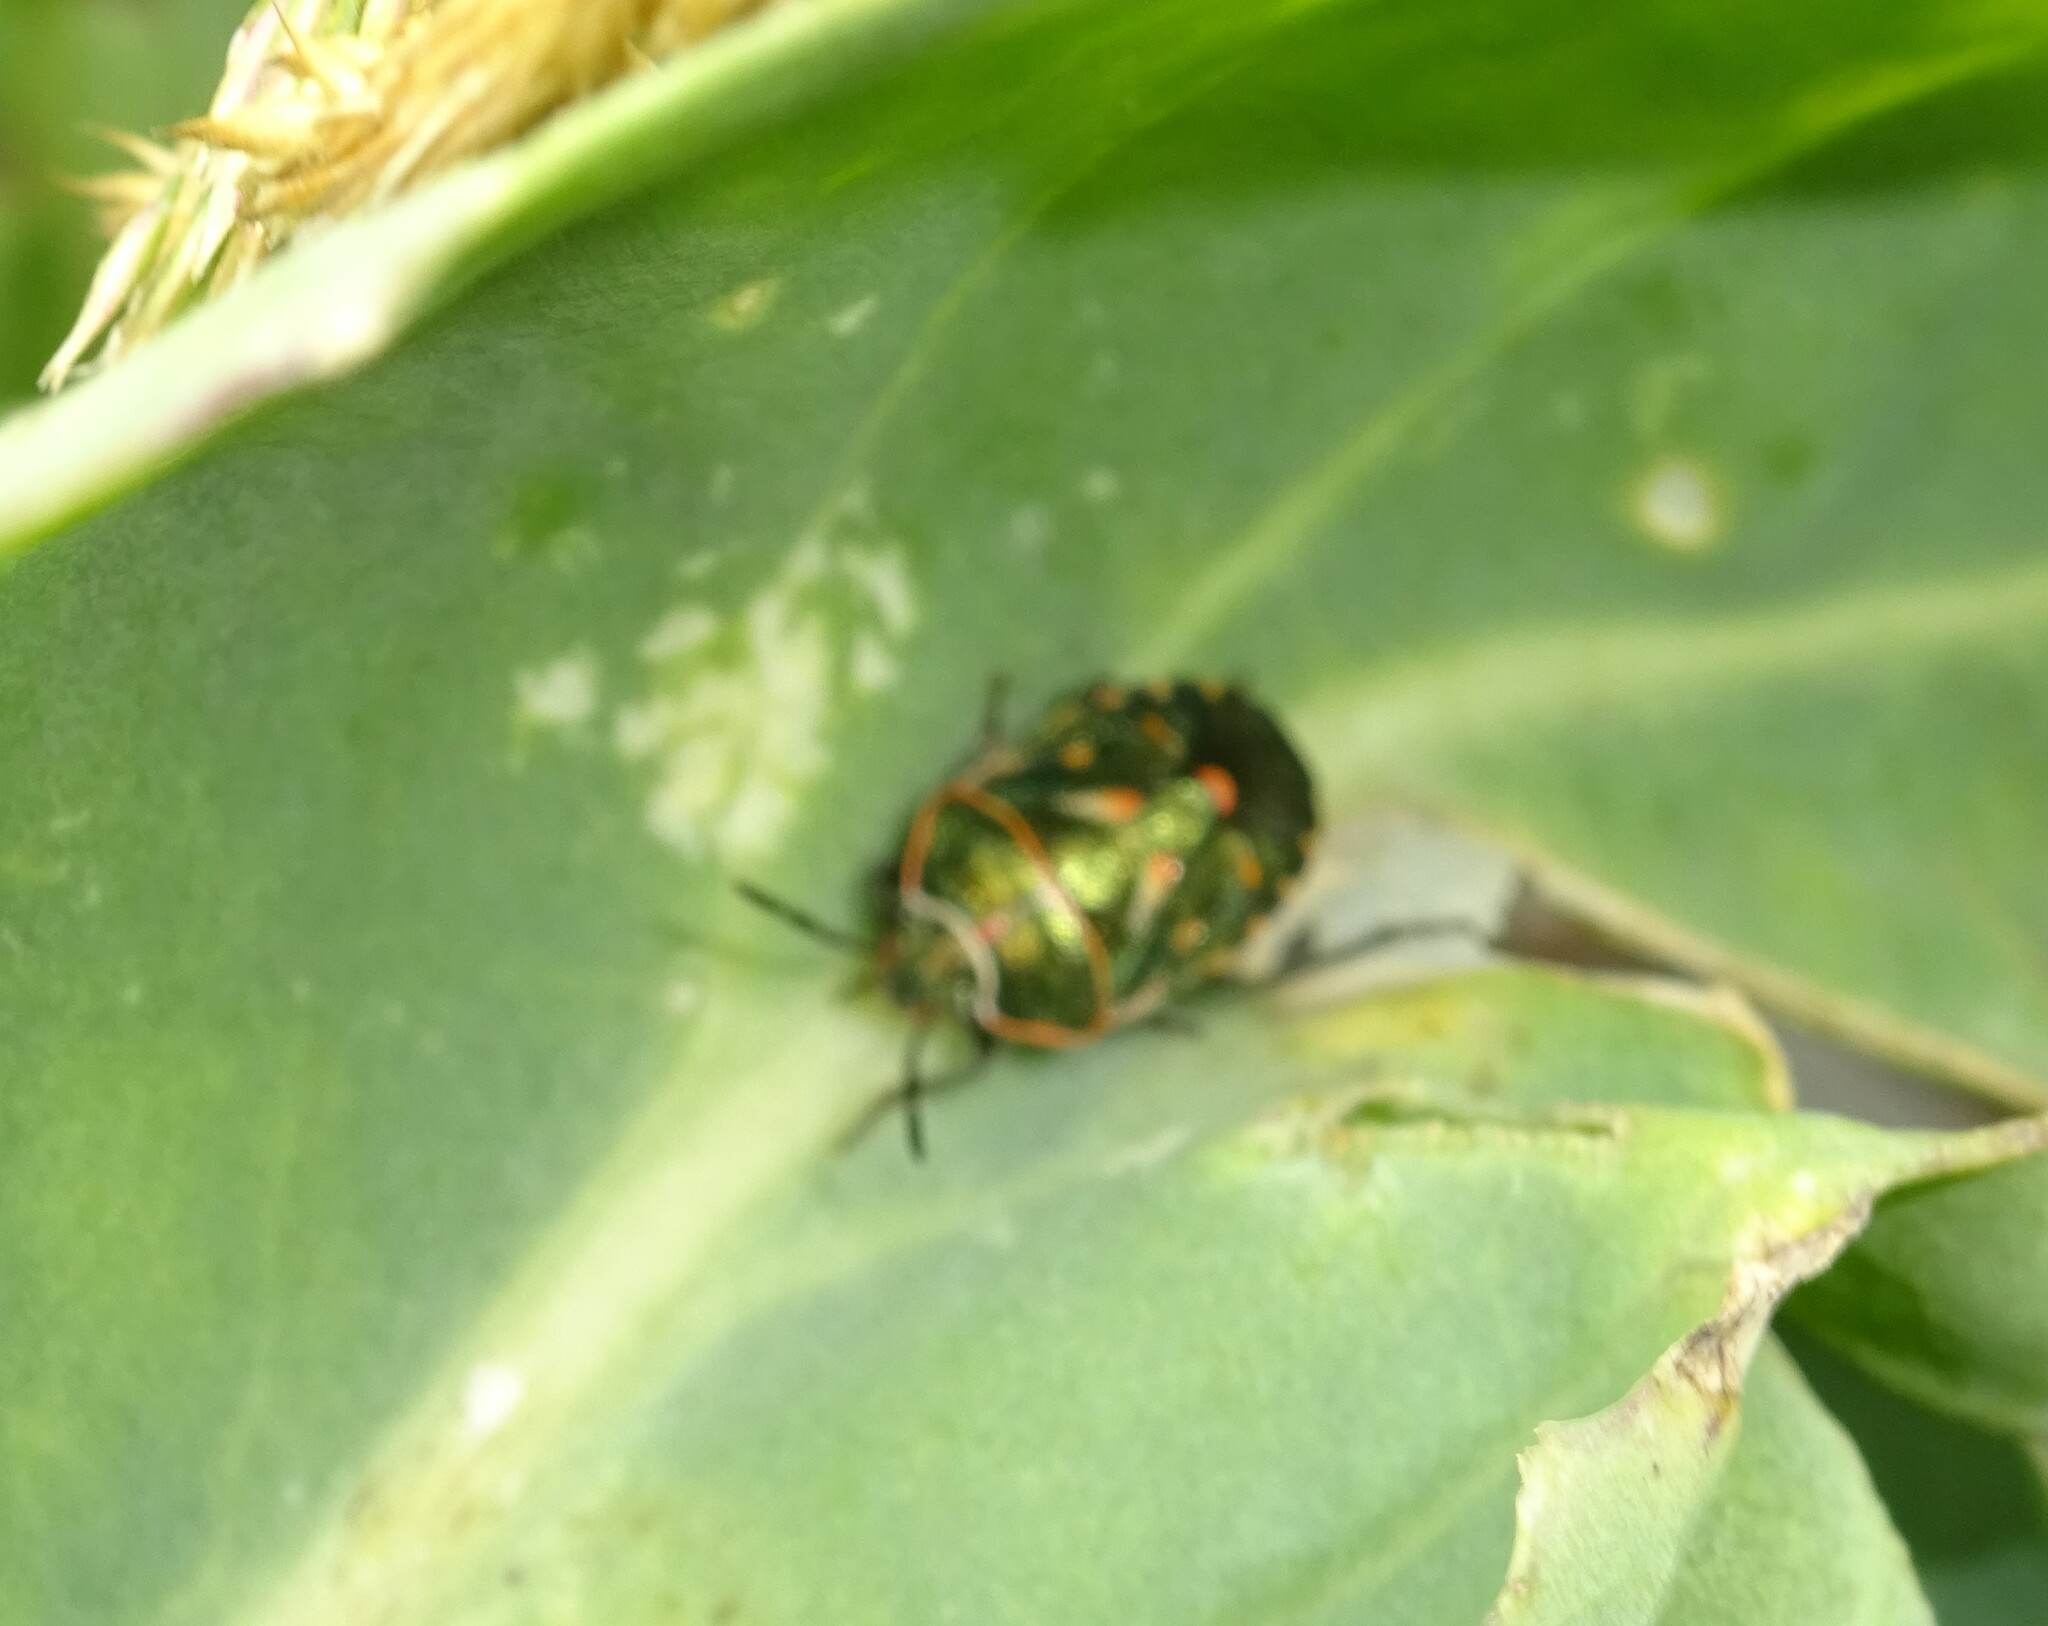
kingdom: Animalia
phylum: Arthropoda
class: Insecta
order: Hemiptera
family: Pentatomidae
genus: Eurydema
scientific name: Eurydema rotundicollis
